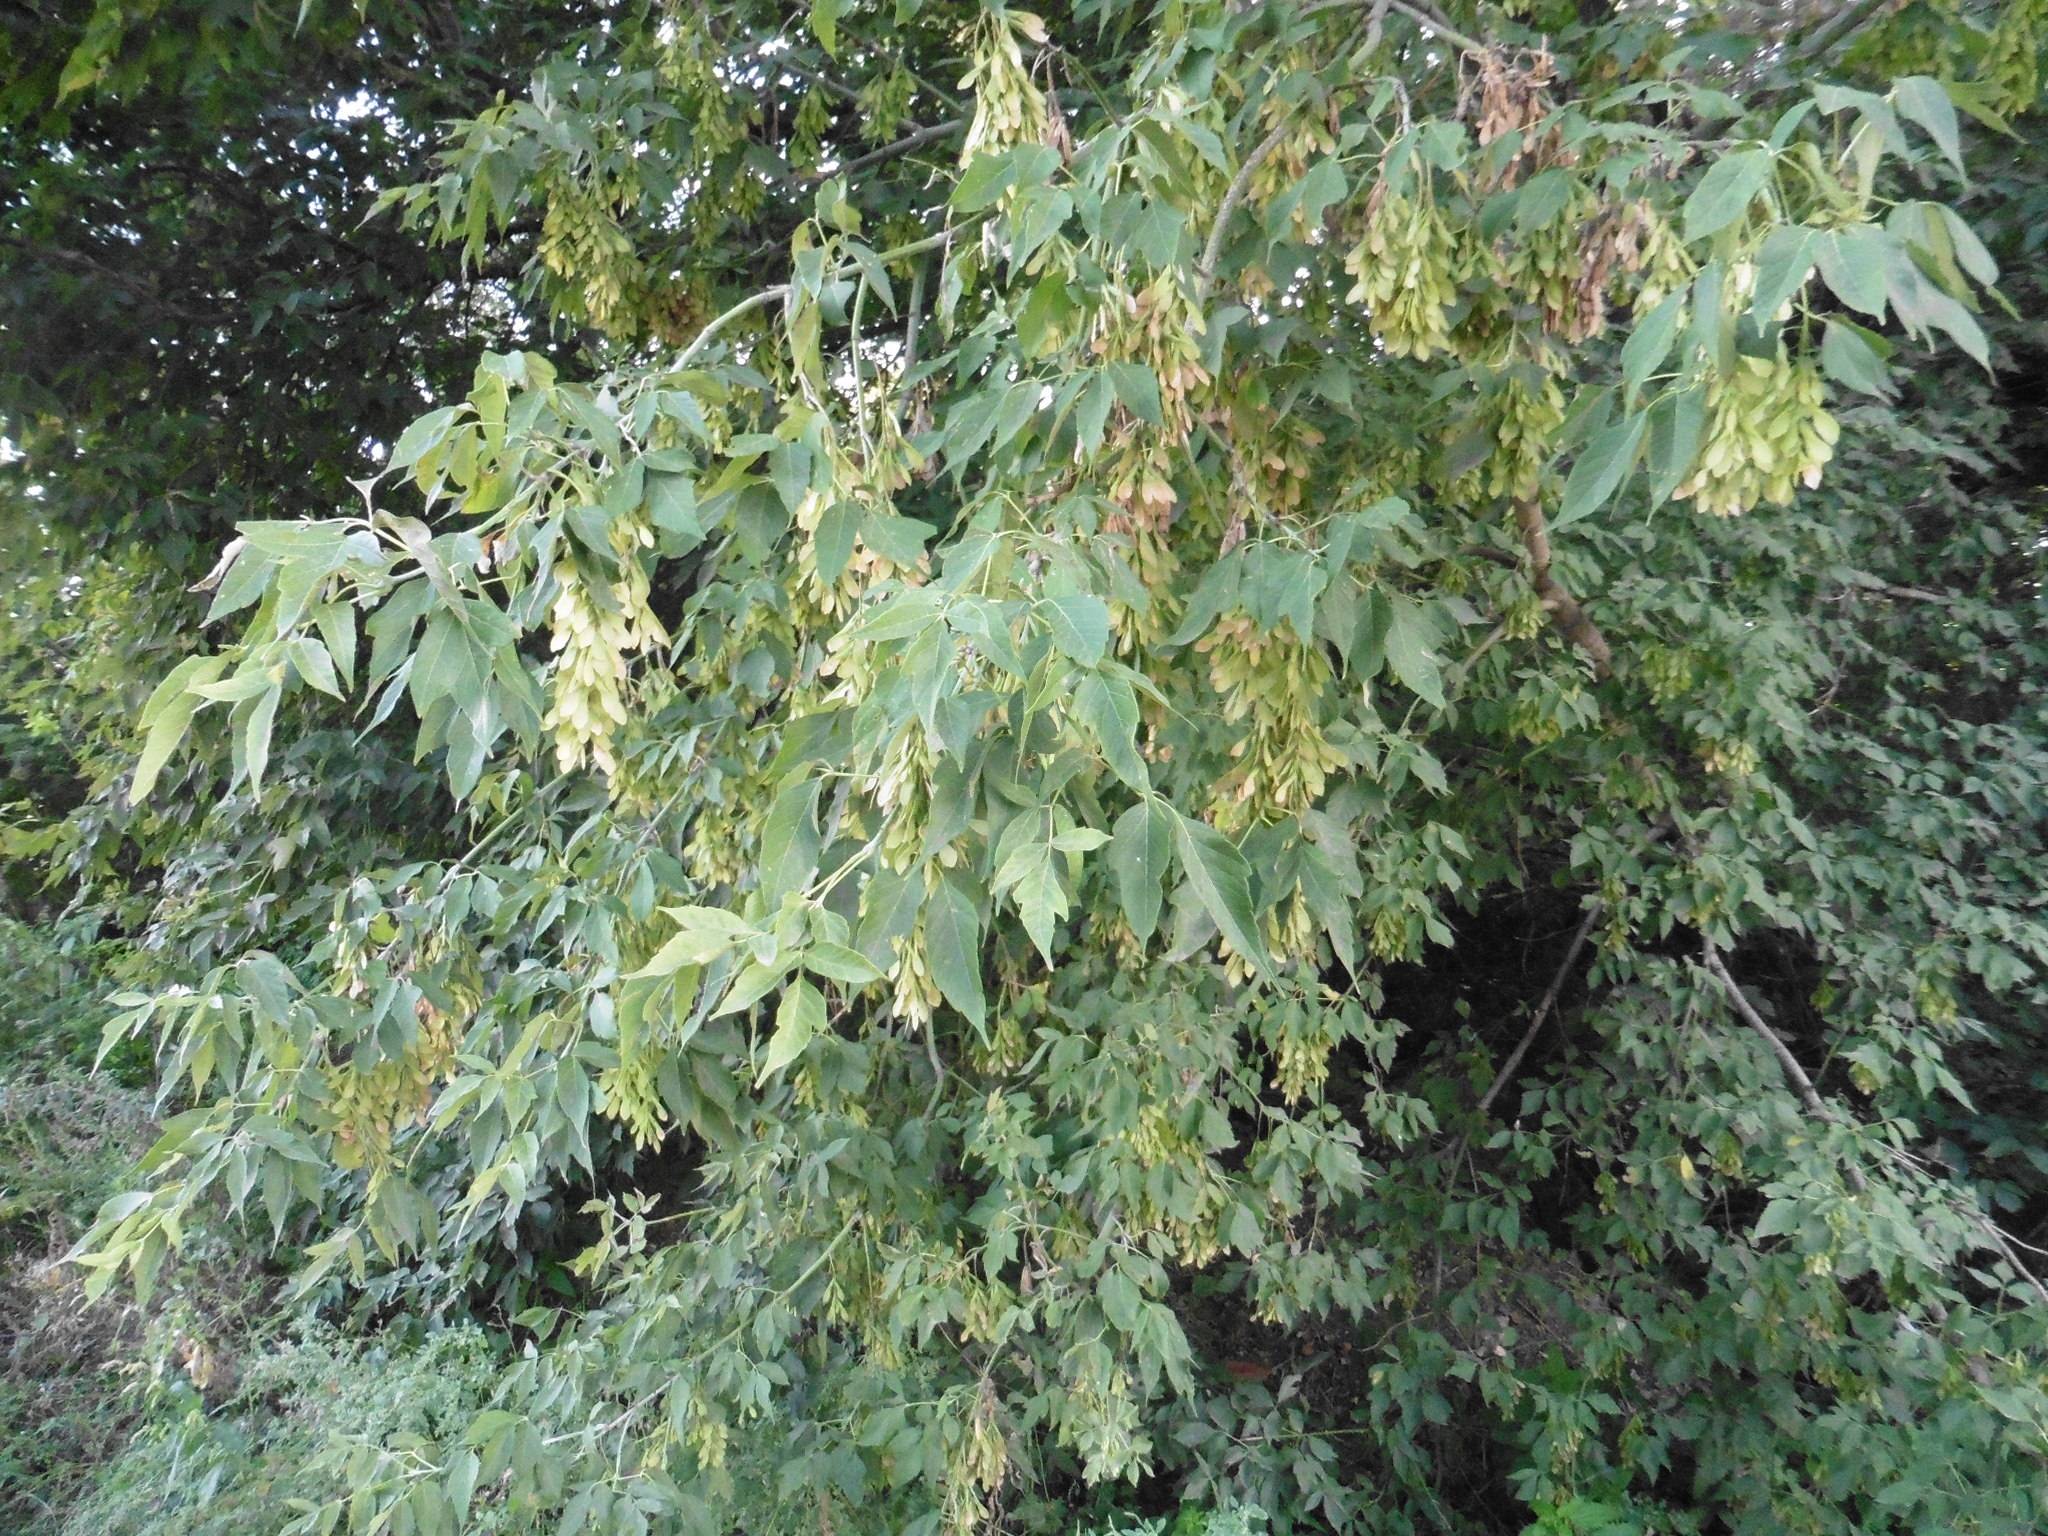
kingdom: Plantae
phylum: Tracheophyta
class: Magnoliopsida
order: Sapindales
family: Sapindaceae
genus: Acer
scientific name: Acer negundo
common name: Ashleaf maple
